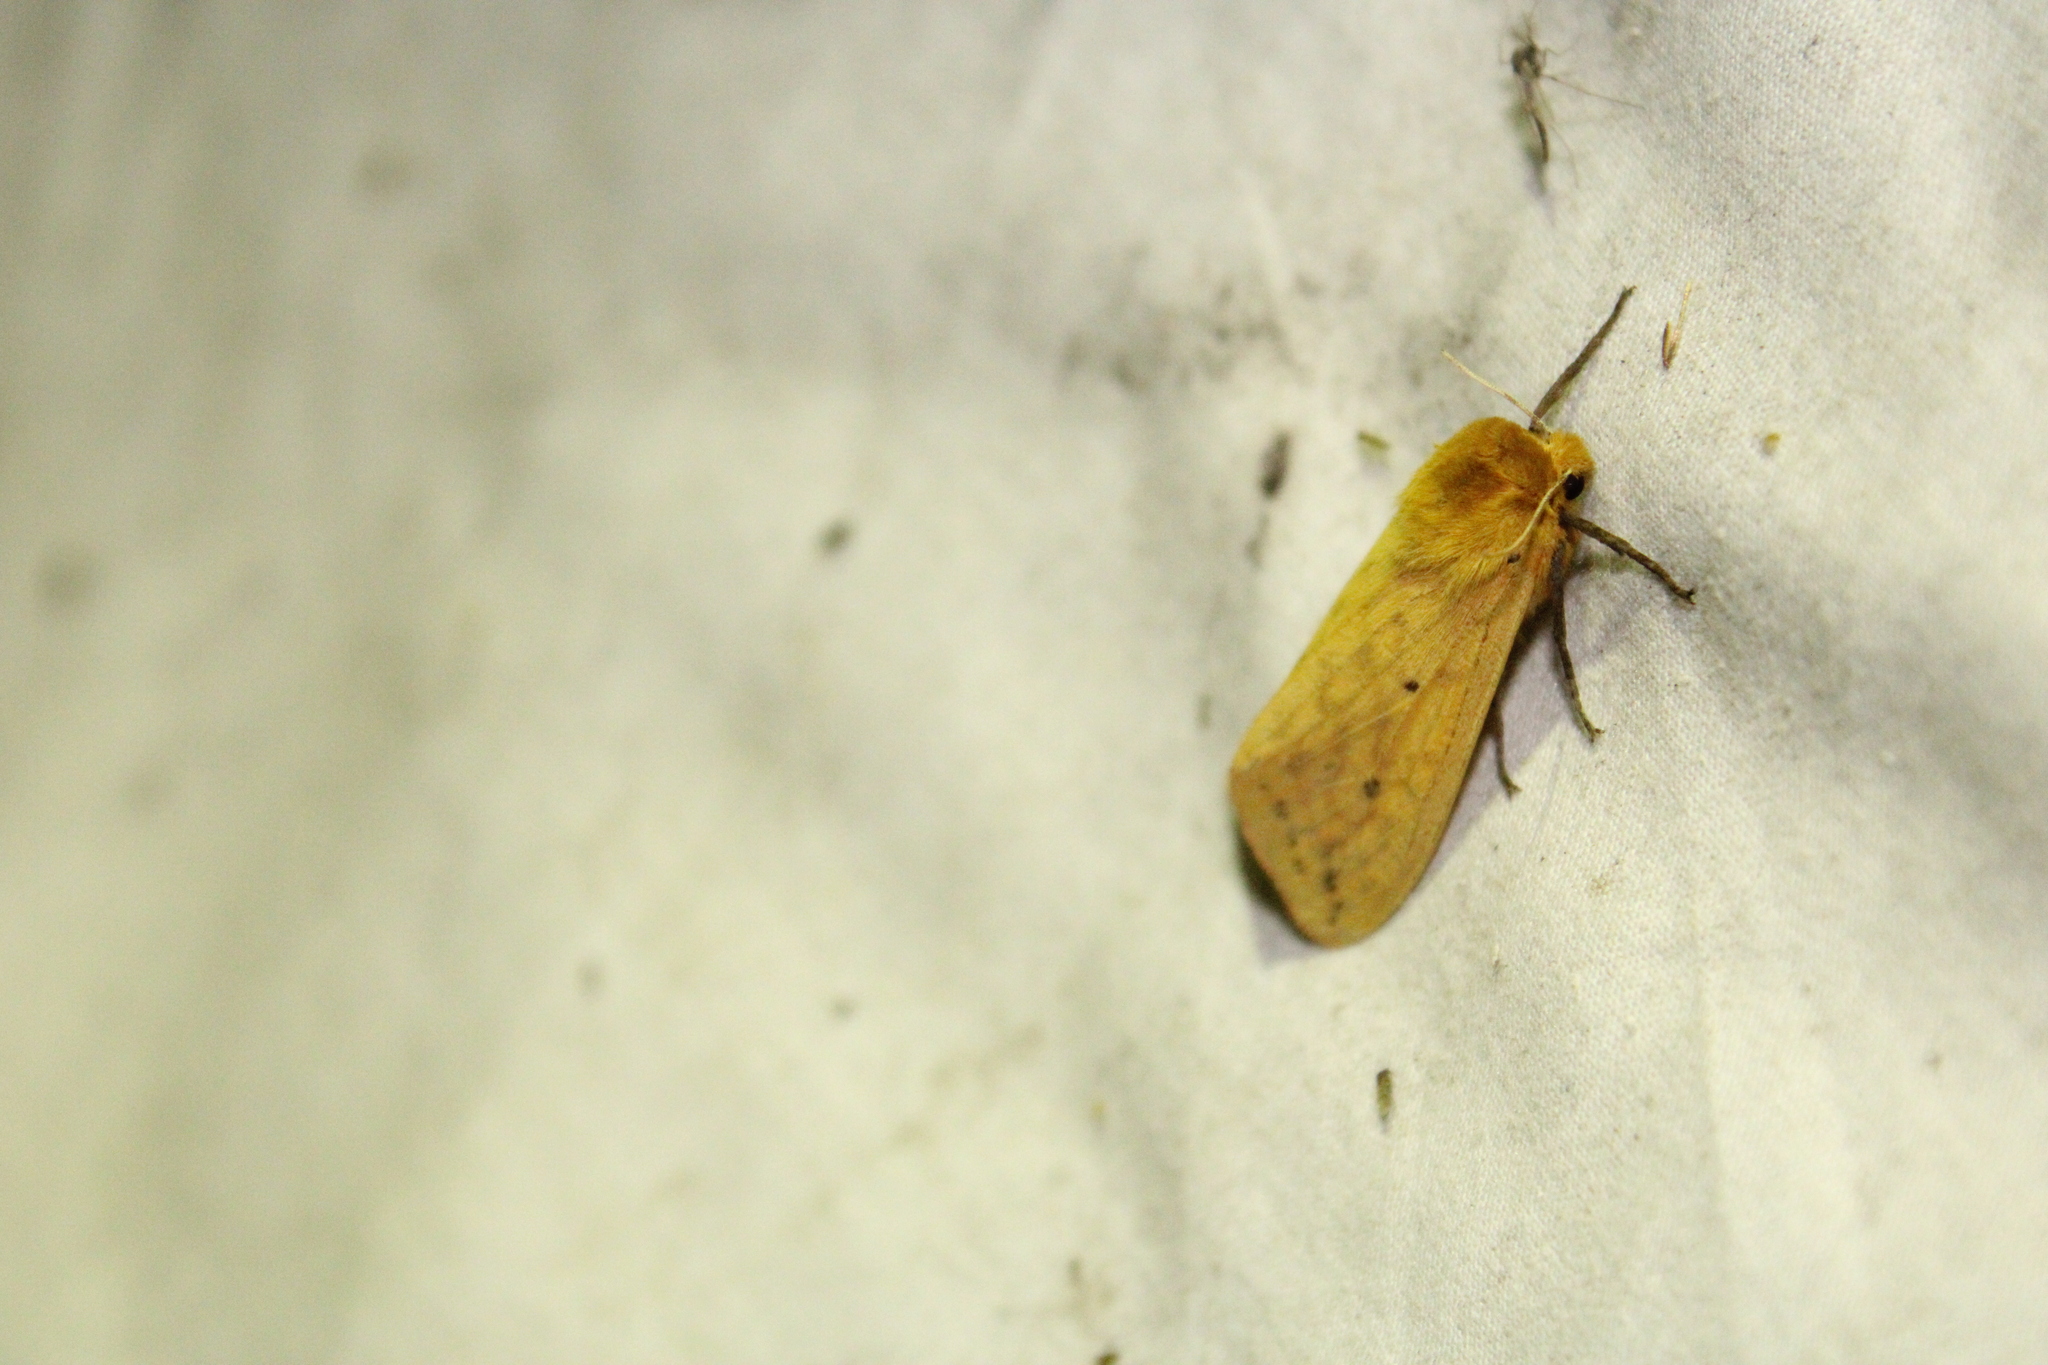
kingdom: Animalia
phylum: Arthropoda
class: Insecta
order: Lepidoptera
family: Erebidae
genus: Pyrrharctia
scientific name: Pyrrharctia isabella
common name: Isabella tiger moth
